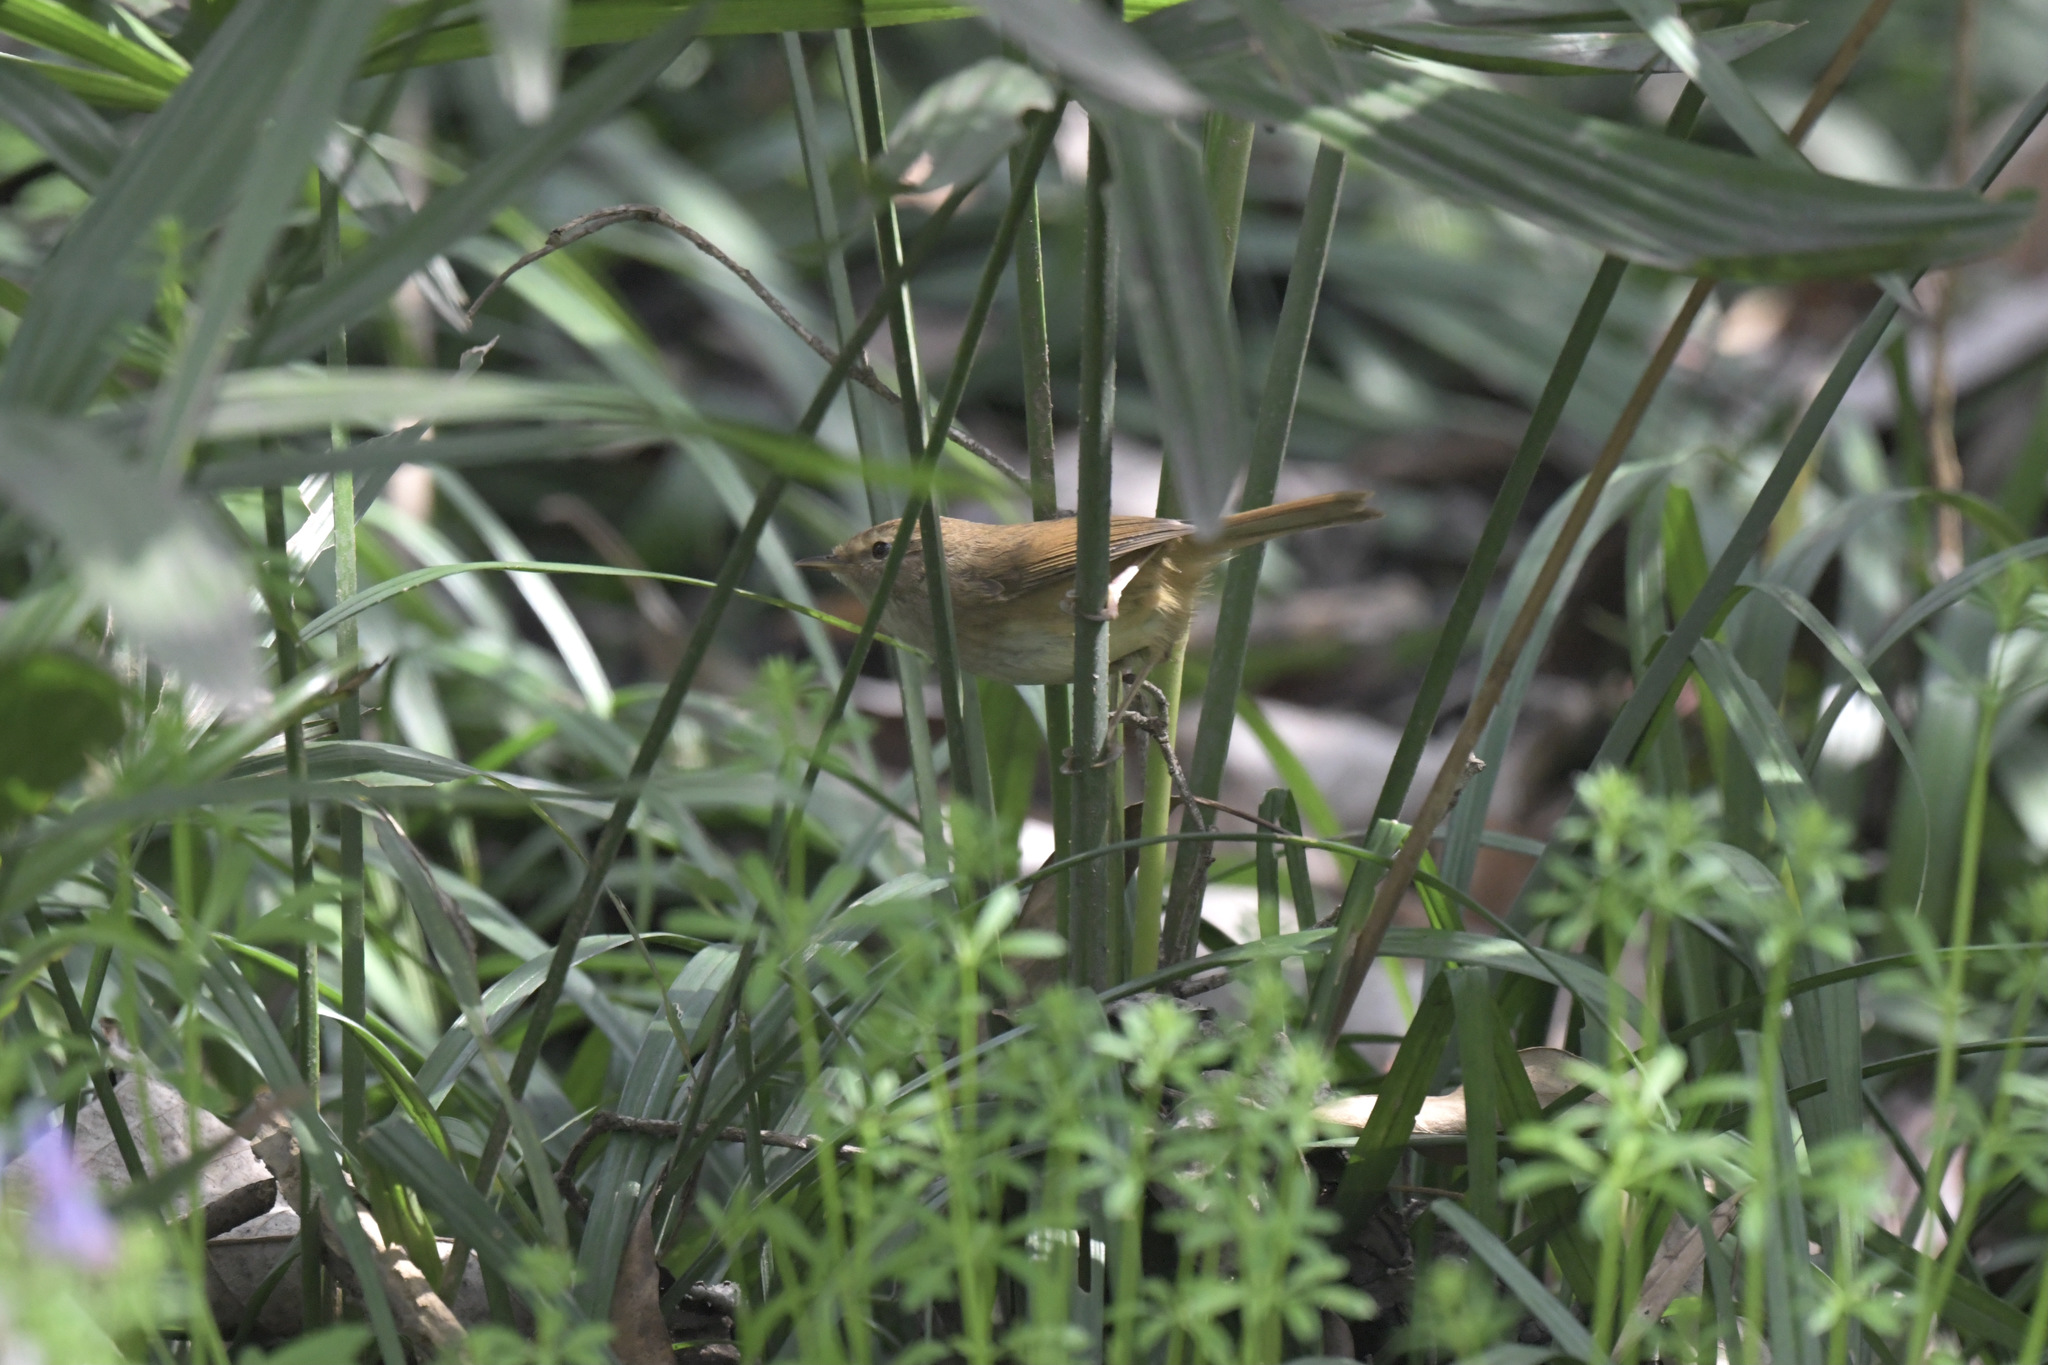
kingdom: Animalia
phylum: Chordata
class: Aves
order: Passeriformes
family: Cettiidae
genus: Horornis
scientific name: Horornis fortipes
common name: Brown-flanked bush warbler
